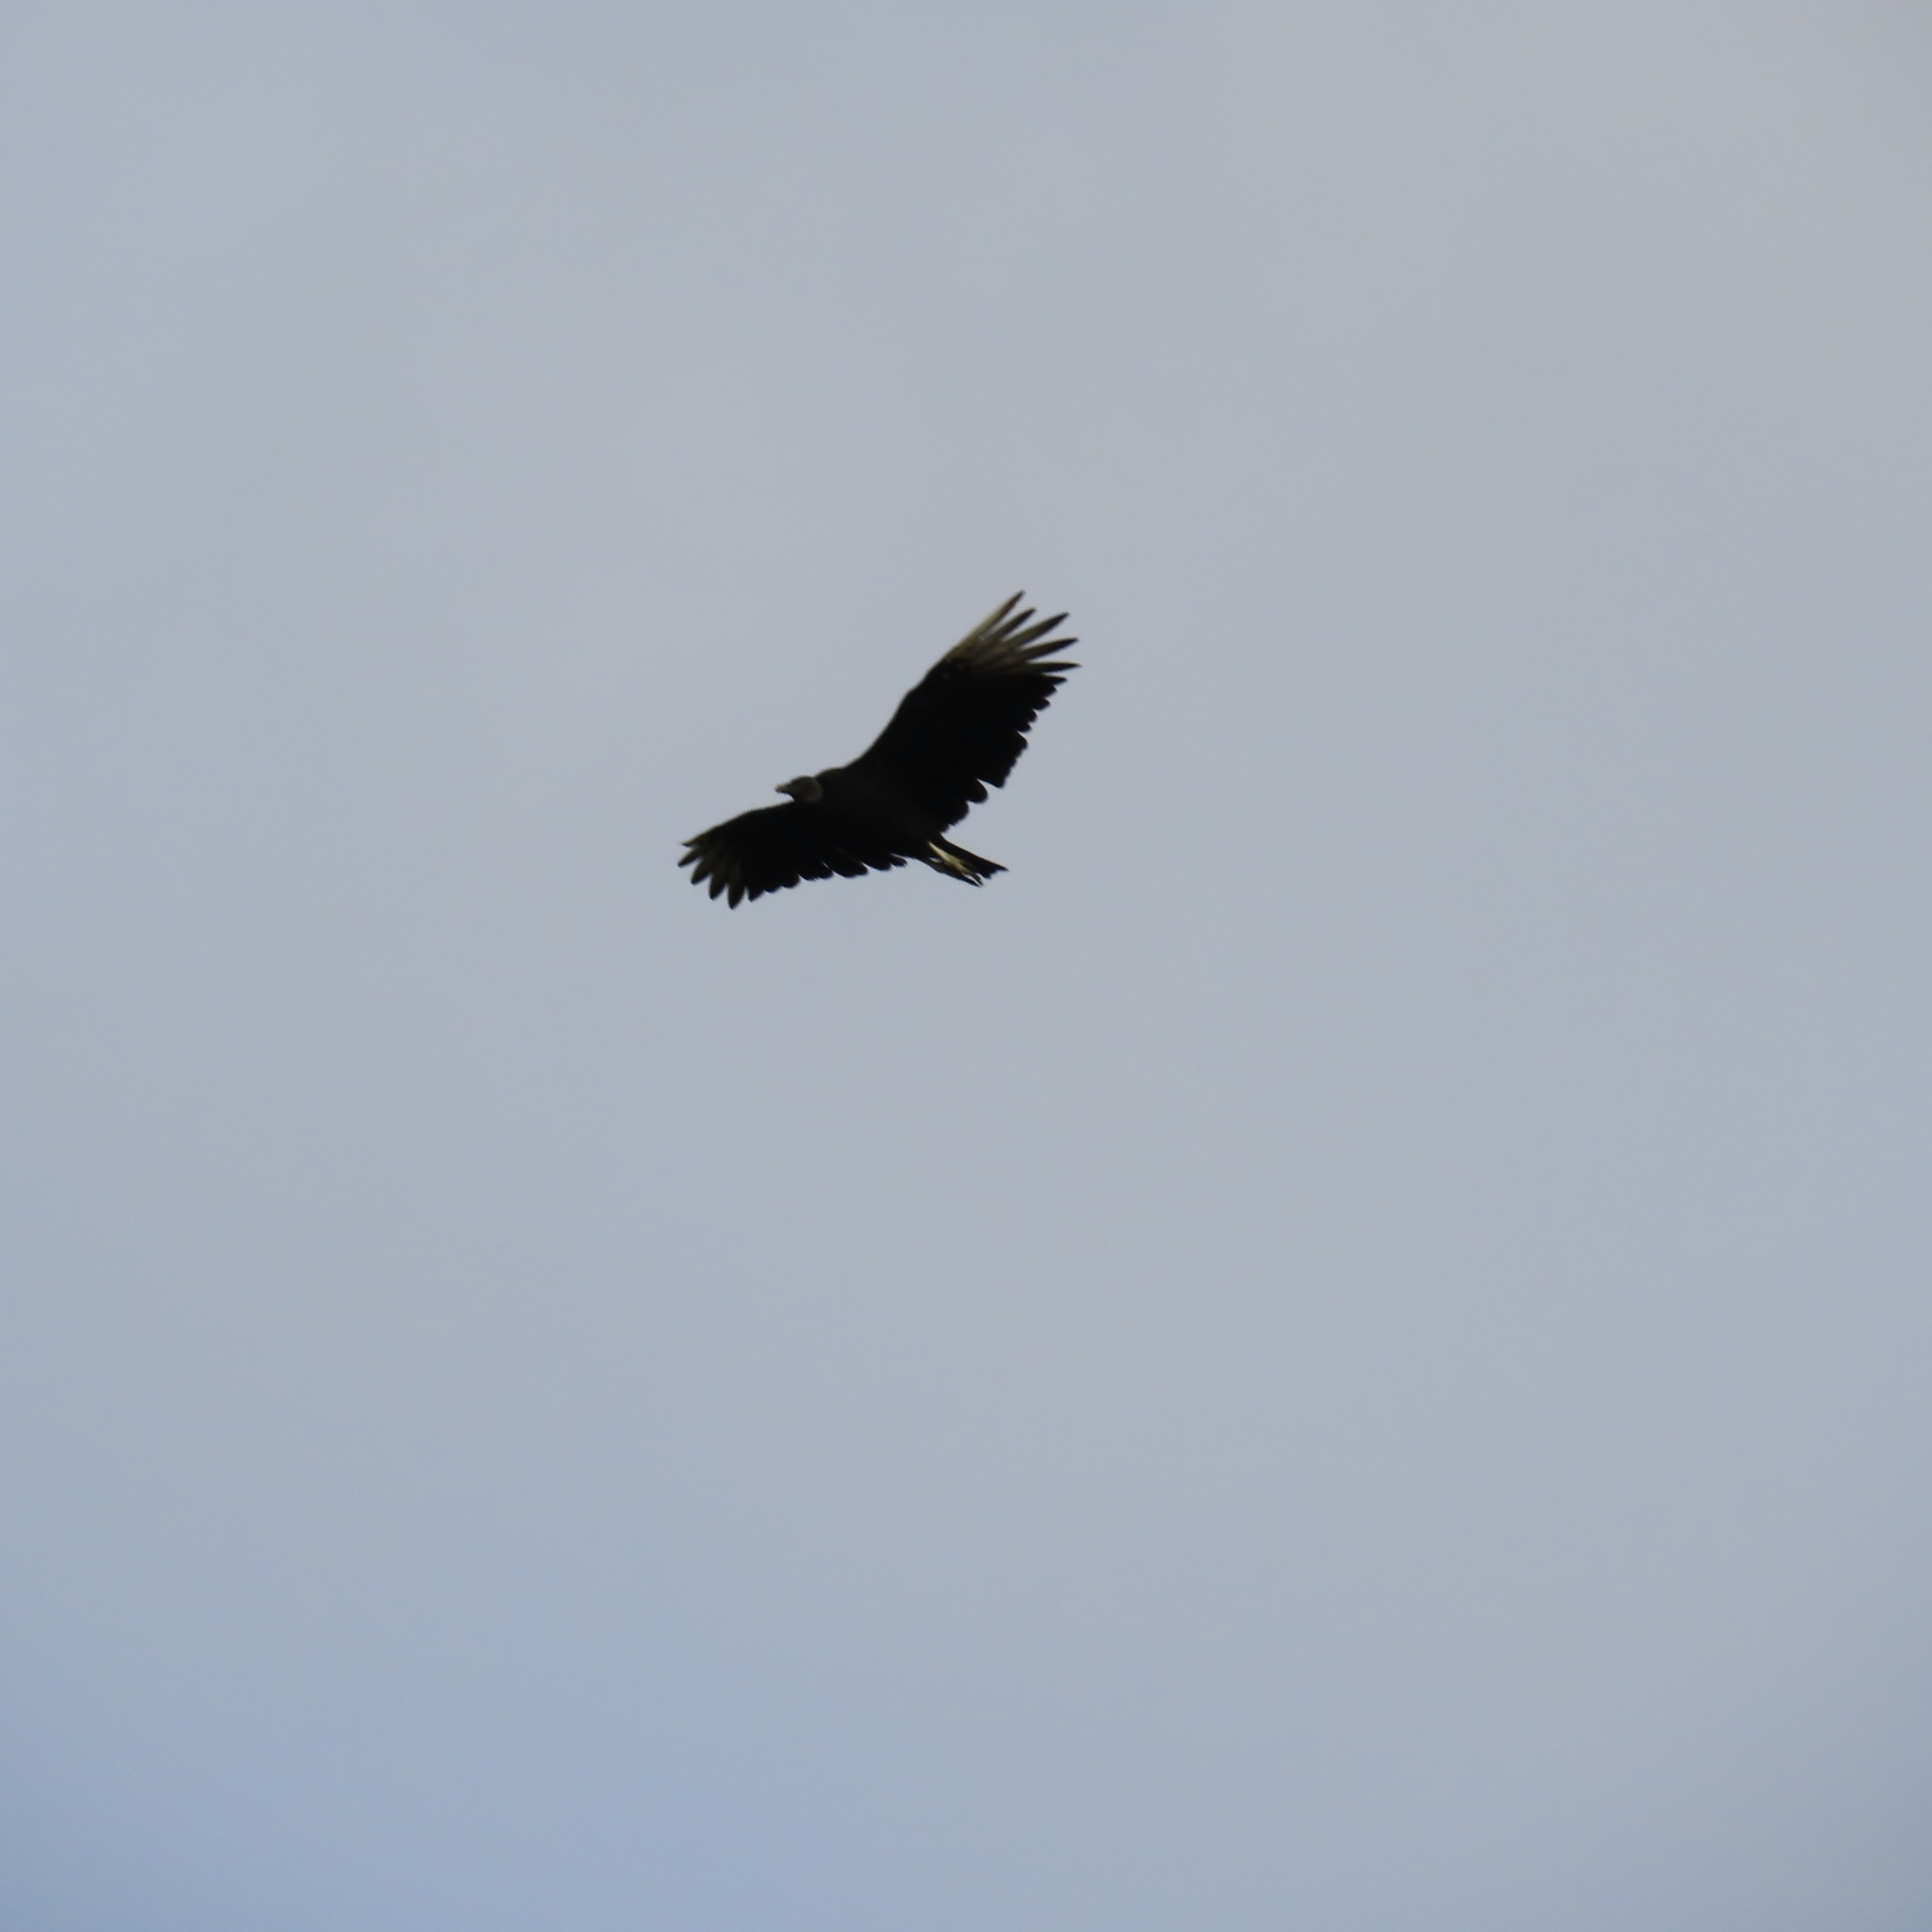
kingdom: Animalia
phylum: Chordata
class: Aves
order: Accipitriformes
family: Cathartidae
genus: Coragyps
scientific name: Coragyps atratus
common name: Black vulture
